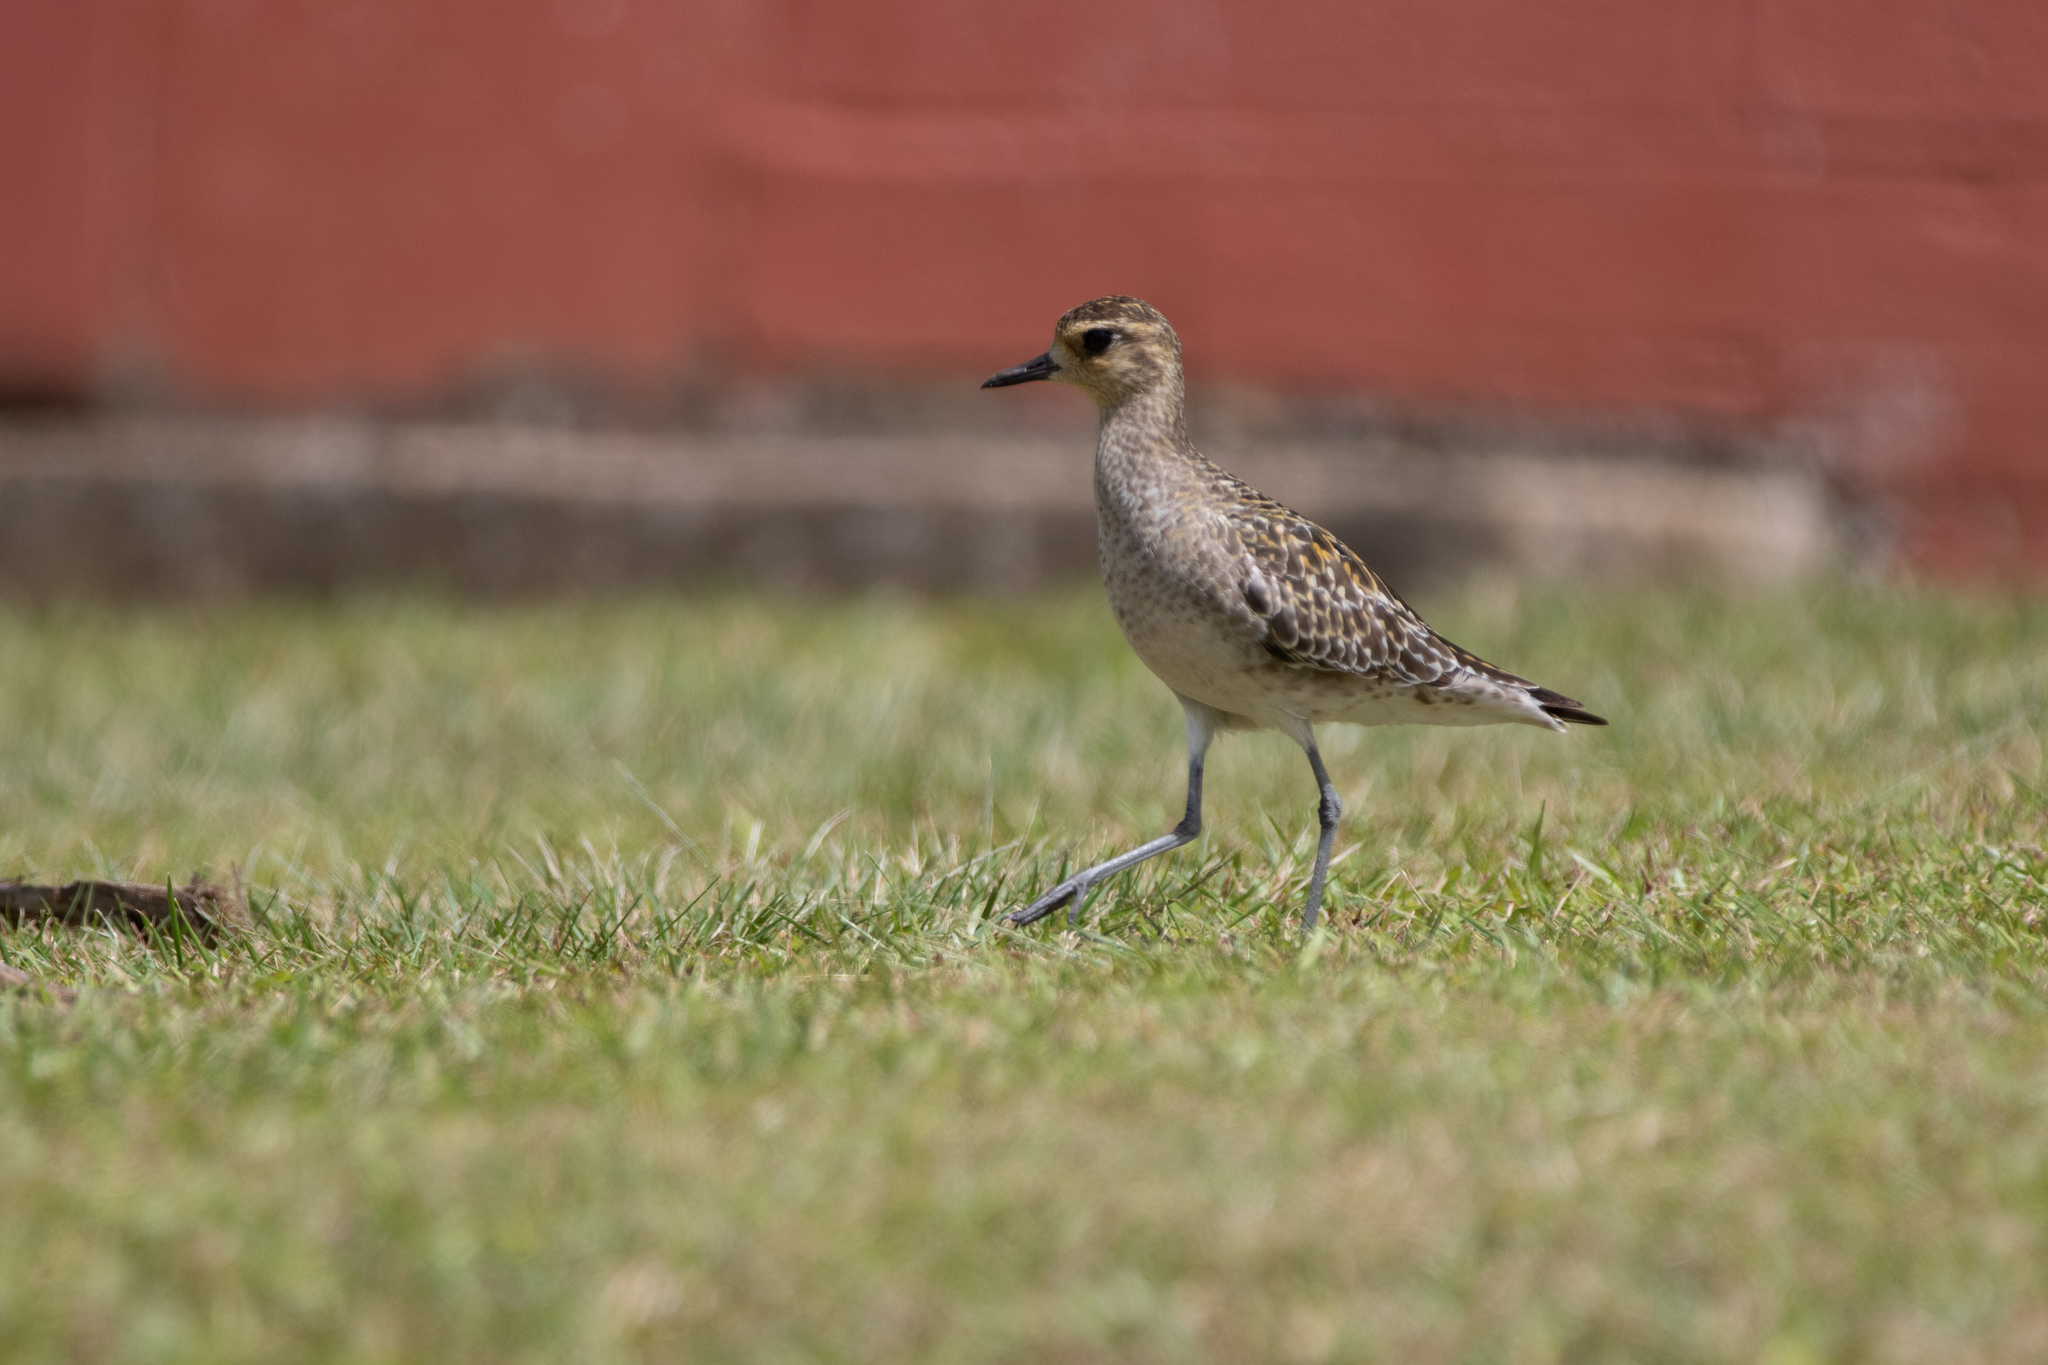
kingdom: Animalia
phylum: Chordata
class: Aves
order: Charadriiformes
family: Charadriidae
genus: Pluvialis
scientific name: Pluvialis fulva
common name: Pacific golden plover
